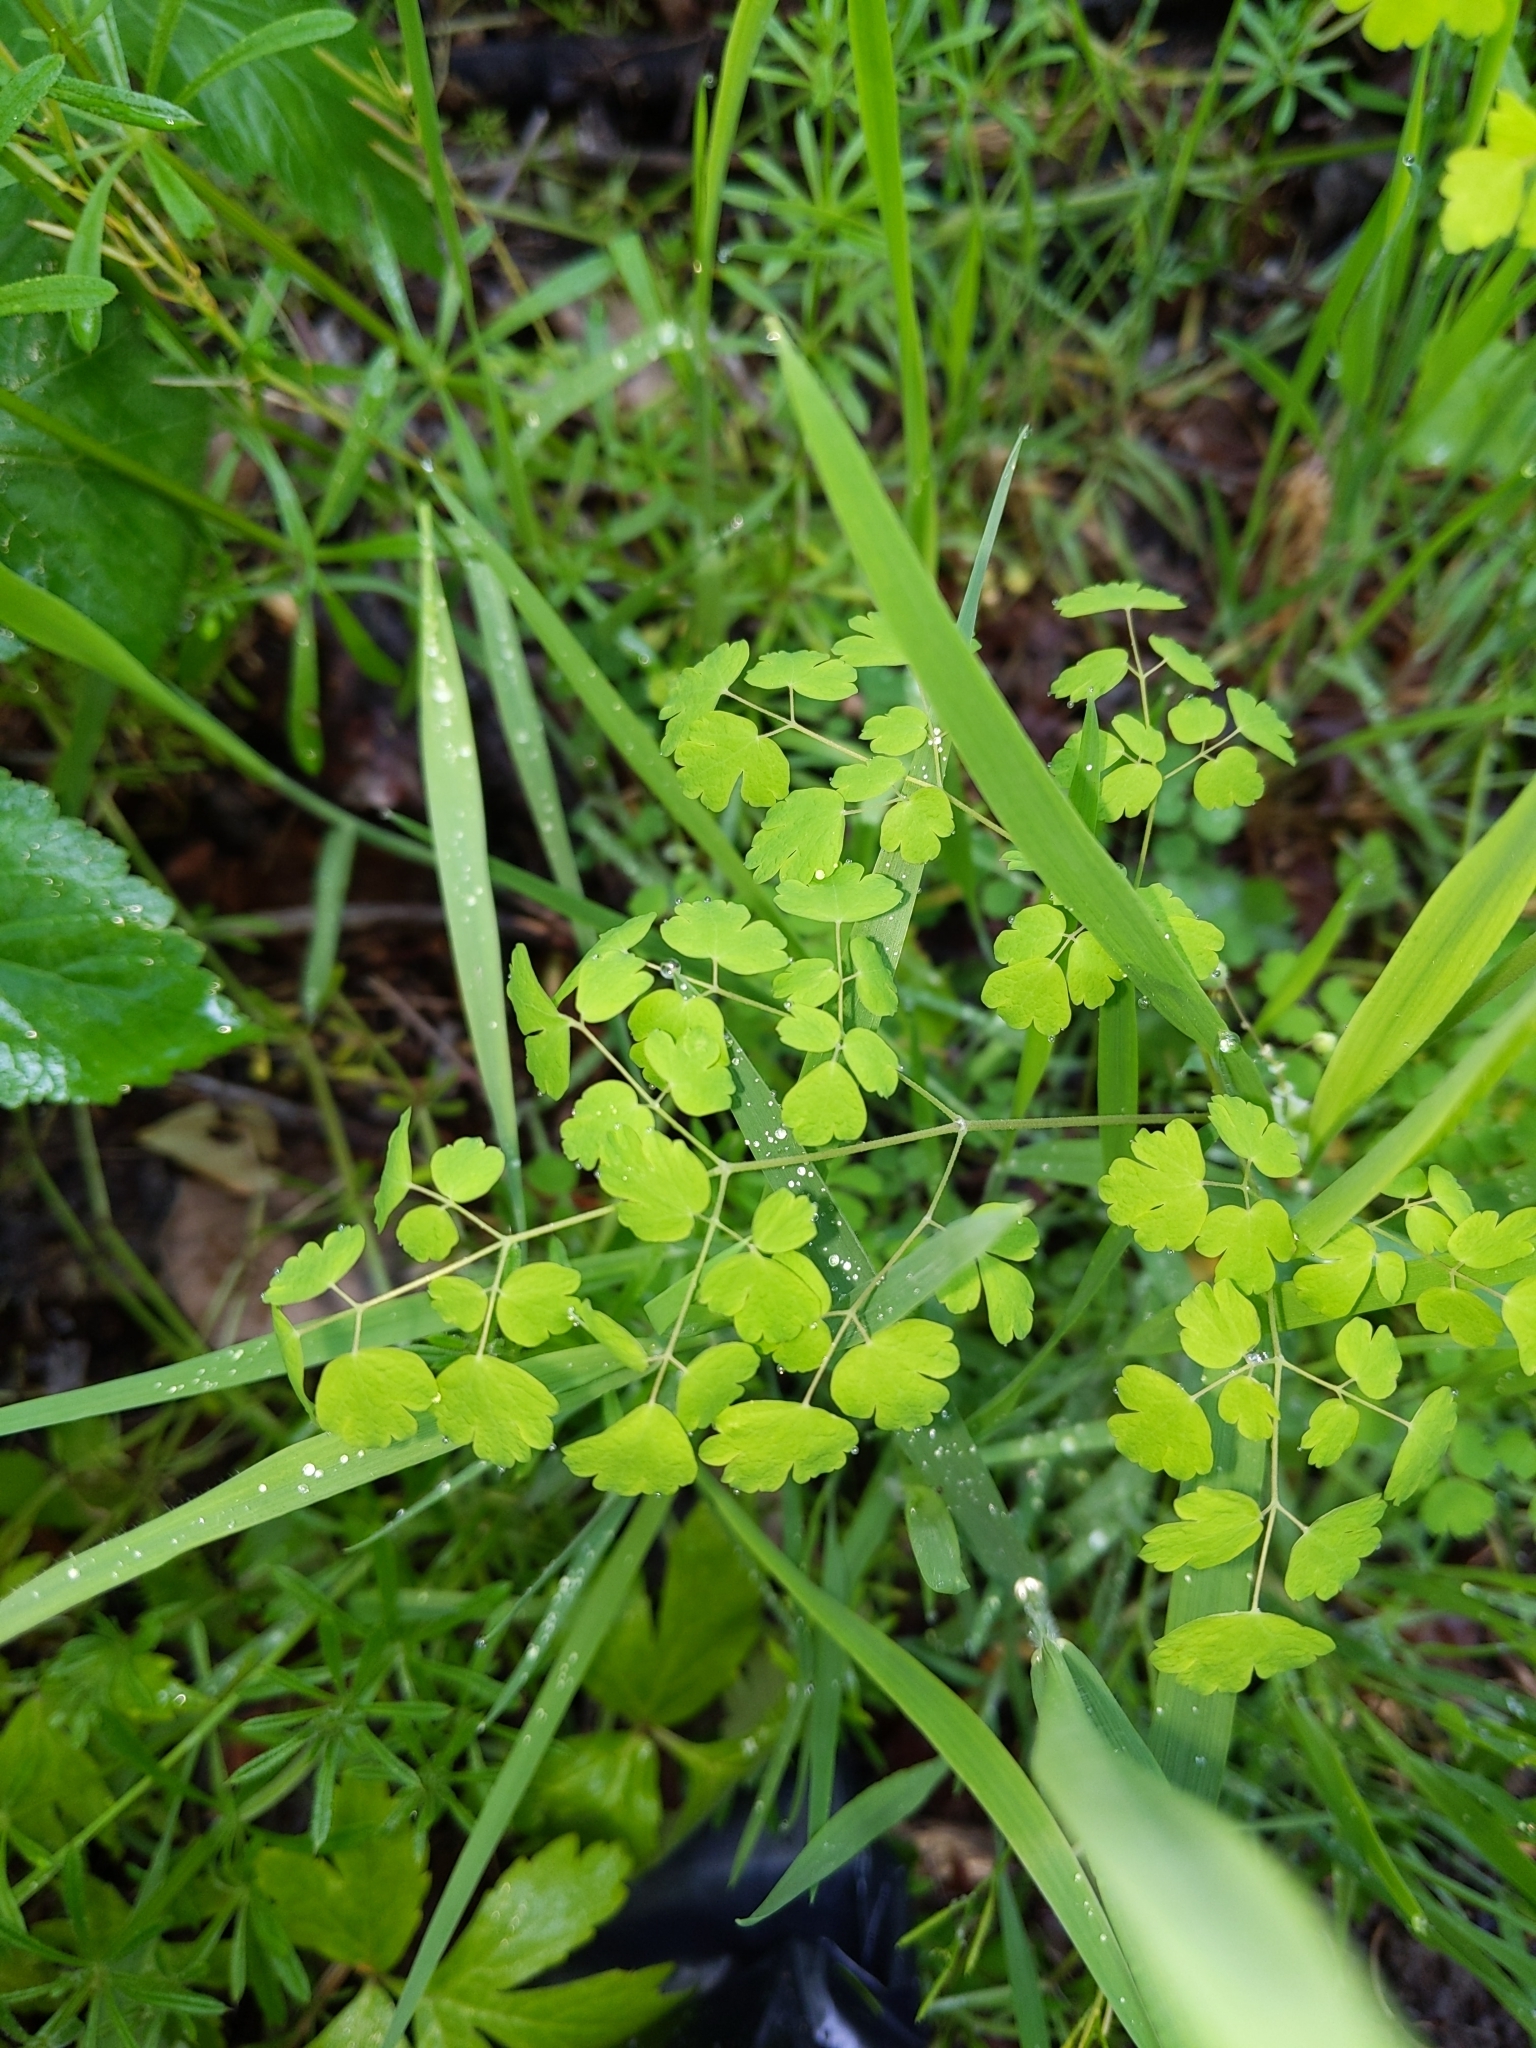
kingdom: Plantae
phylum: Tracheophyta
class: Magnoliopsida
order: Ranunculales
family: Ranunculaceae
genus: Thalictrum
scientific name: Thalictrum occidentale
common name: Western meadow-rue
